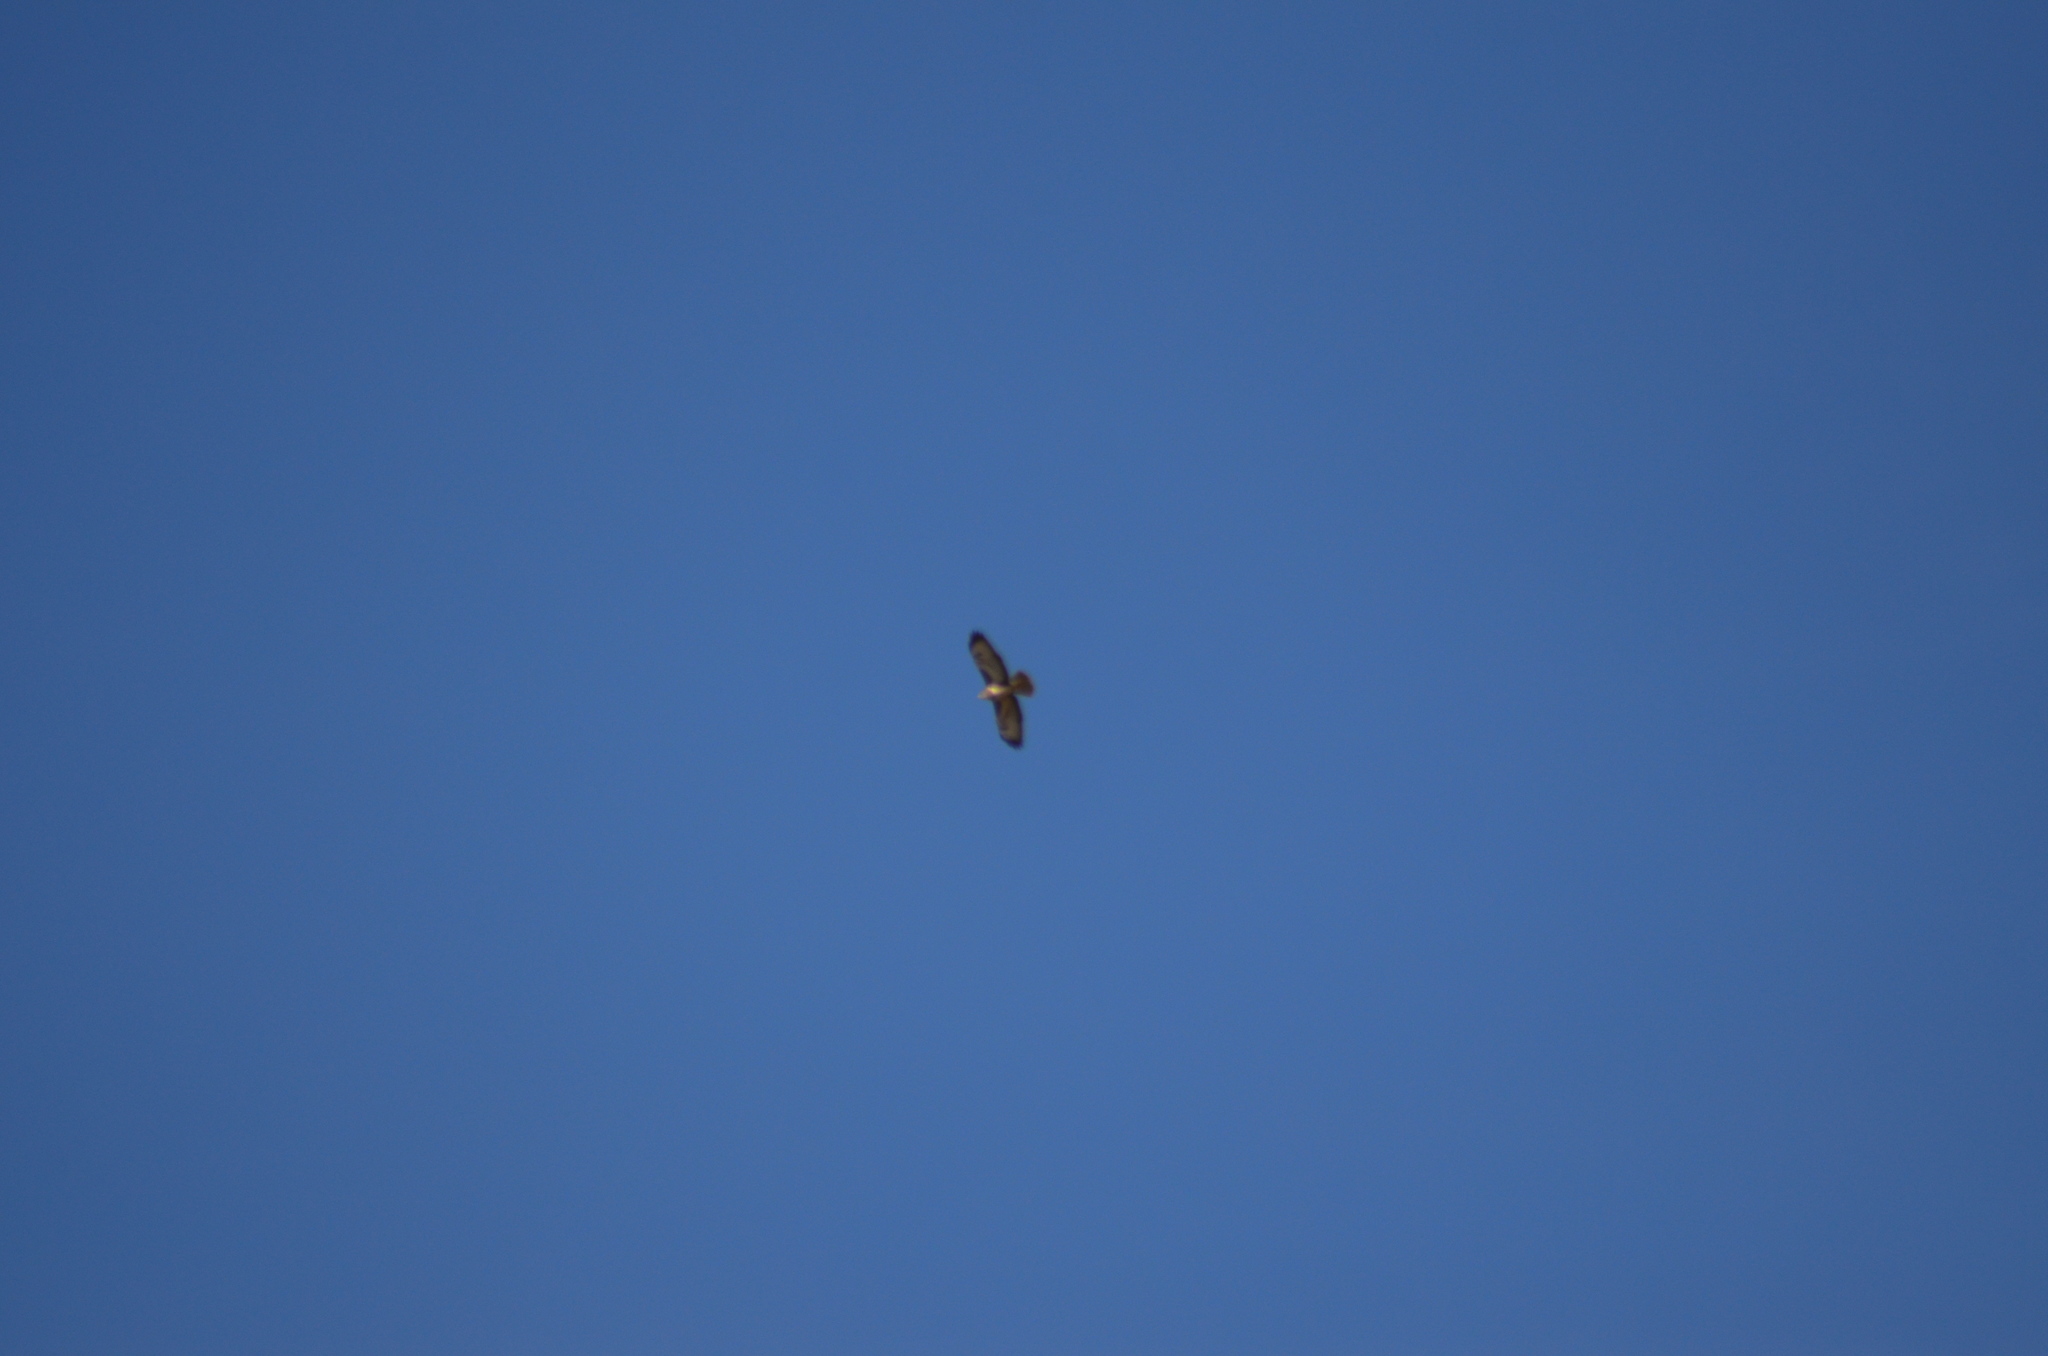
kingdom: Animalia
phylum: Chordata
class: Aves
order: Accipitriformes
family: Accipitridae
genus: Buteo
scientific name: Buteo buteo
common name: Common buzzard
